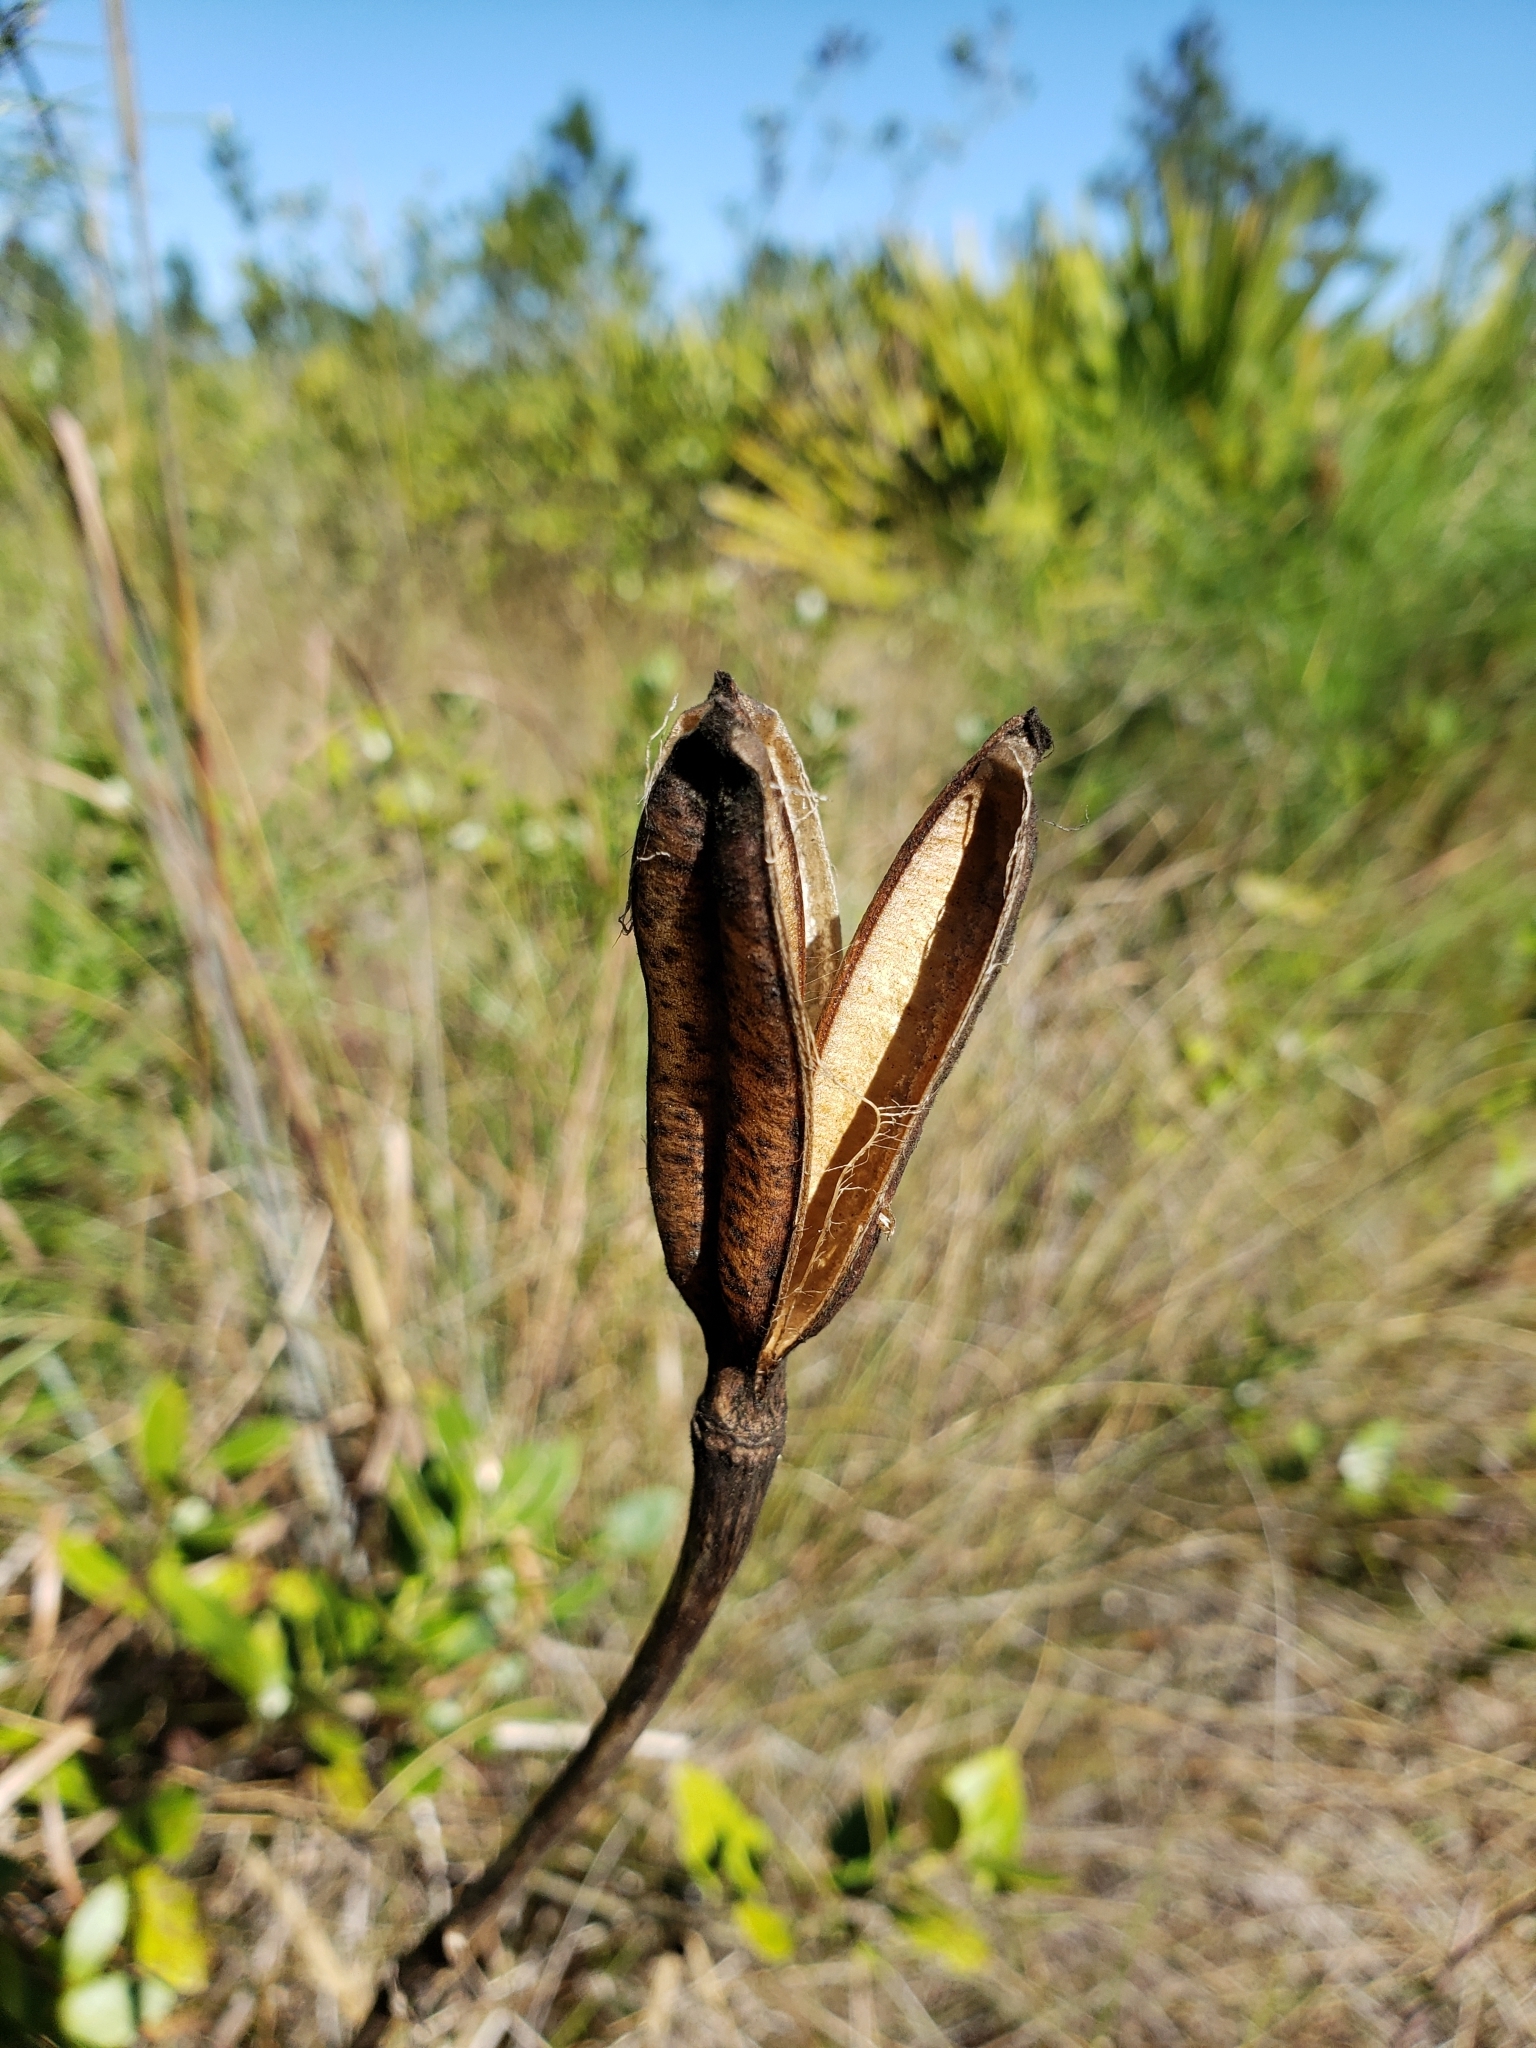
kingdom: Plantae
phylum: Tracheophyta
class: Liliopsida
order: Liliales
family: Liliaceae
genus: Lilium
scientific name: Lilium catesbaei
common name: Catesby's lily
